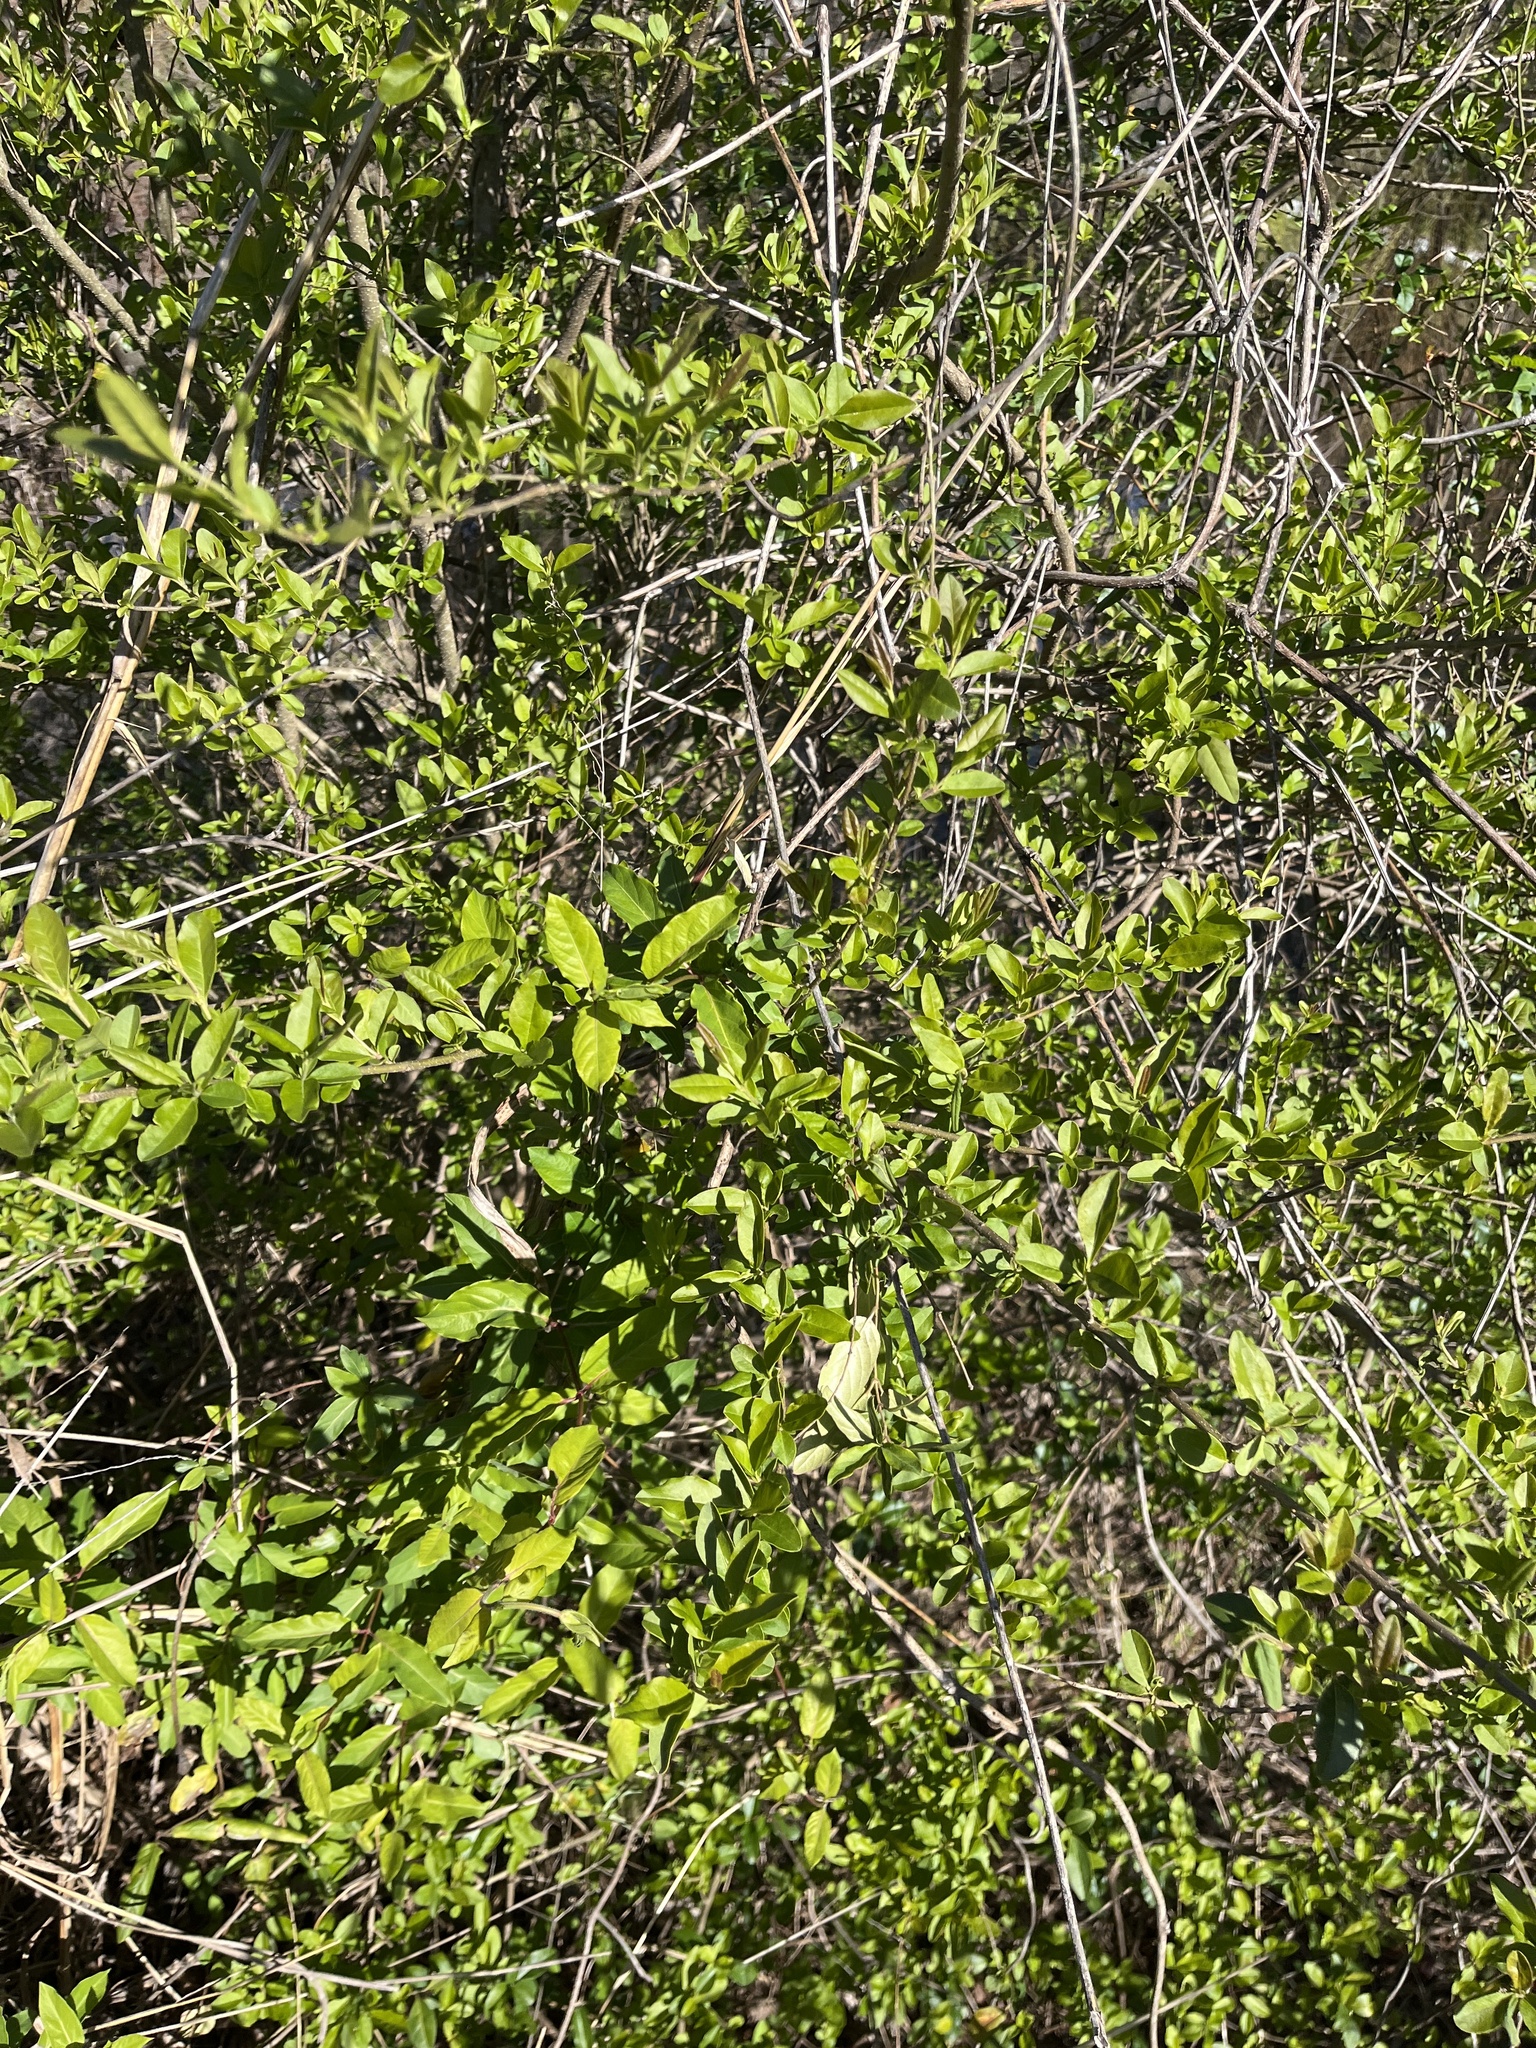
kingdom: Plantae
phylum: Tracheophyta
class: Magnoliopsida
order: Dipsacales
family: Caprifoliaceae
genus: Lonicera
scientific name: Lonicera japonica
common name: Japanese honeysuckle
